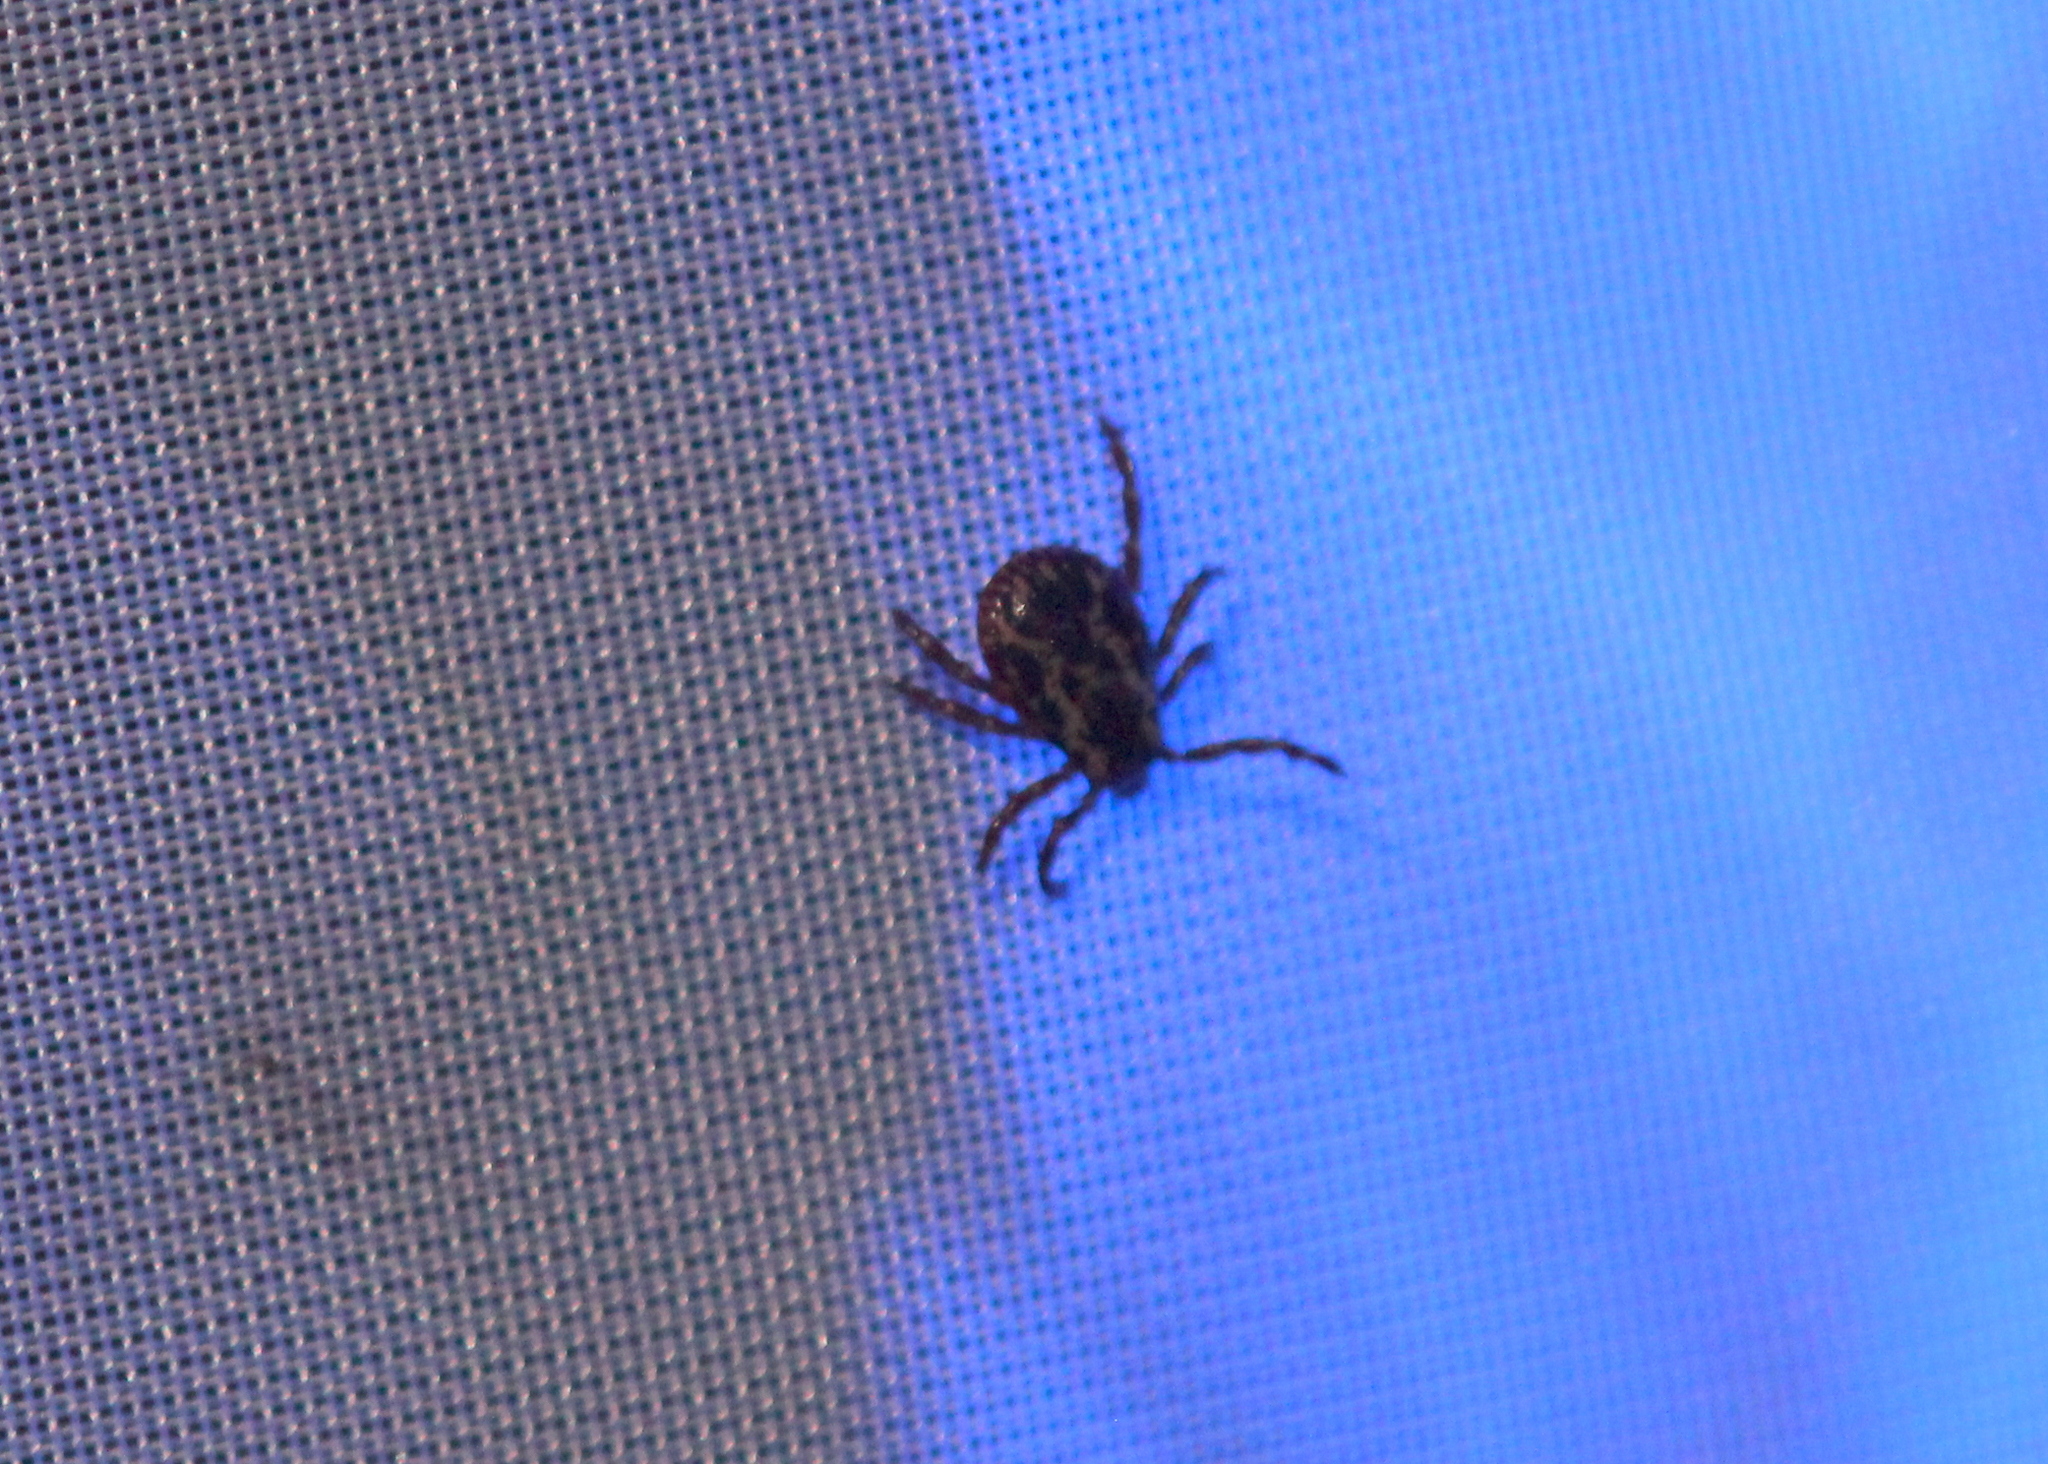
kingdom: Animalia
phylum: Arthropoda
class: Arachnida
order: Ixodida
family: Ixodidae
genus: Dermacentor
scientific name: Dermacentor variabilis
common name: American dog tick
